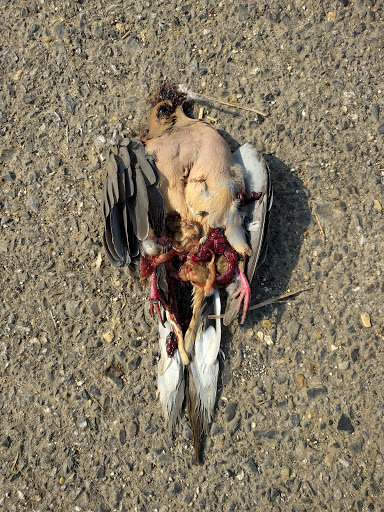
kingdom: Animalia
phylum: Chordata
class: Aves
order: Columbiformes
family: Columbidae
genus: Zenaida
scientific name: Zenaida macroura
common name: Mourning dove
